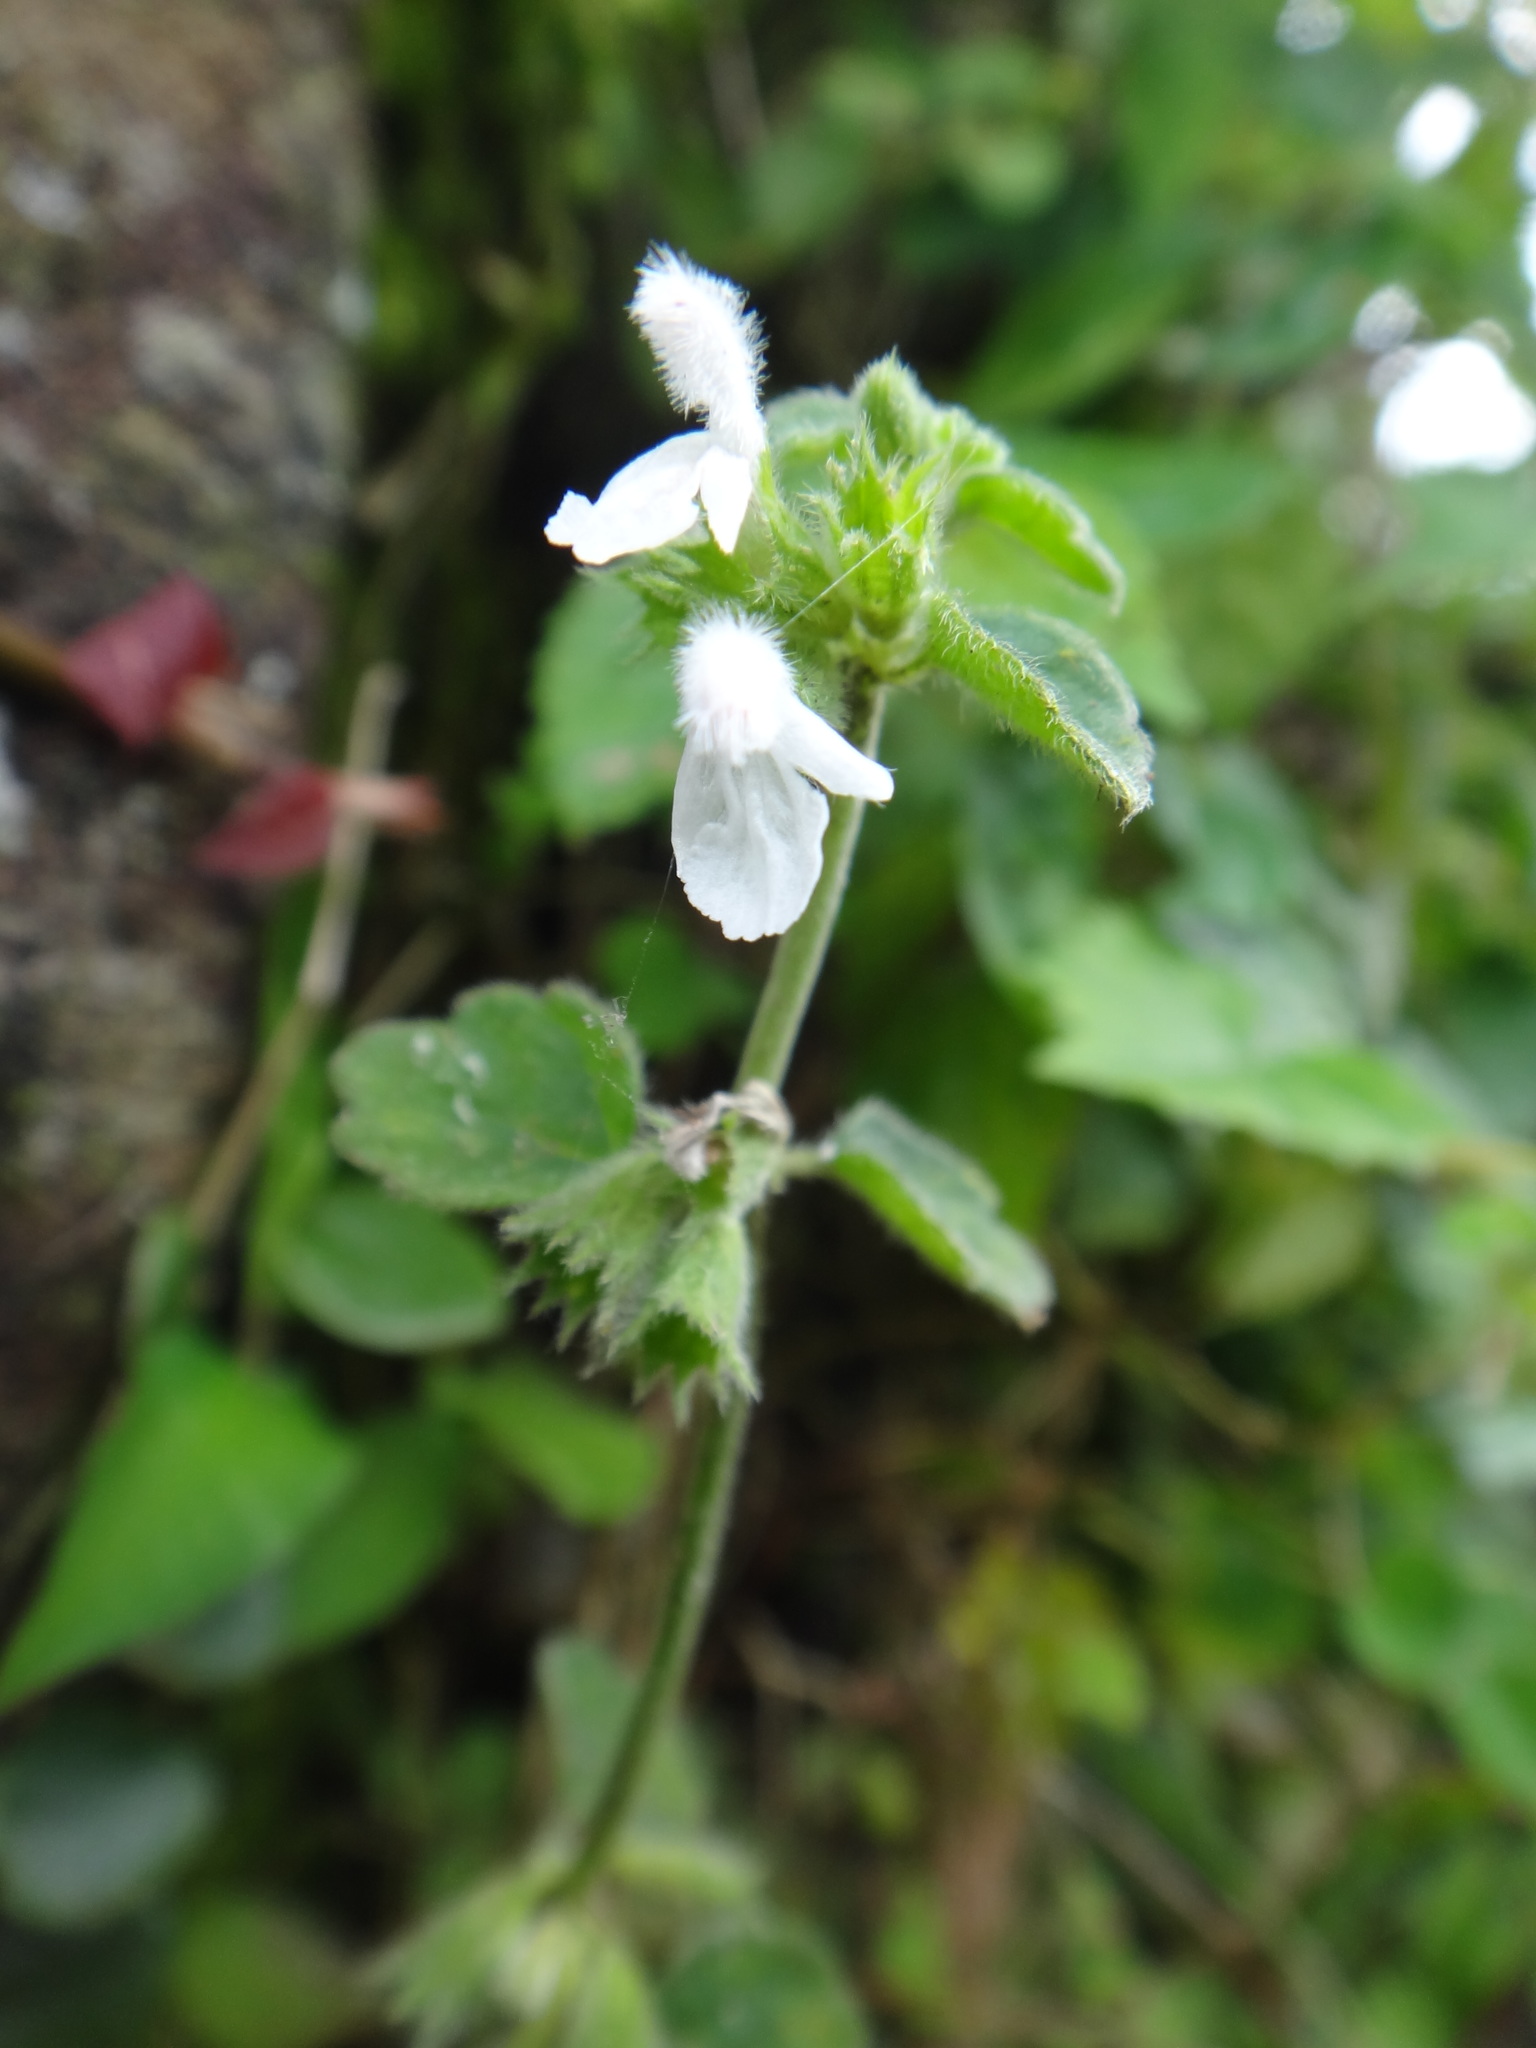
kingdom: Plantae
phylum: Tracheophyta
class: Magnoliopsida
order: Lamiales
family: Lamiaceae
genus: Leucas
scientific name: Leucas chinensis
